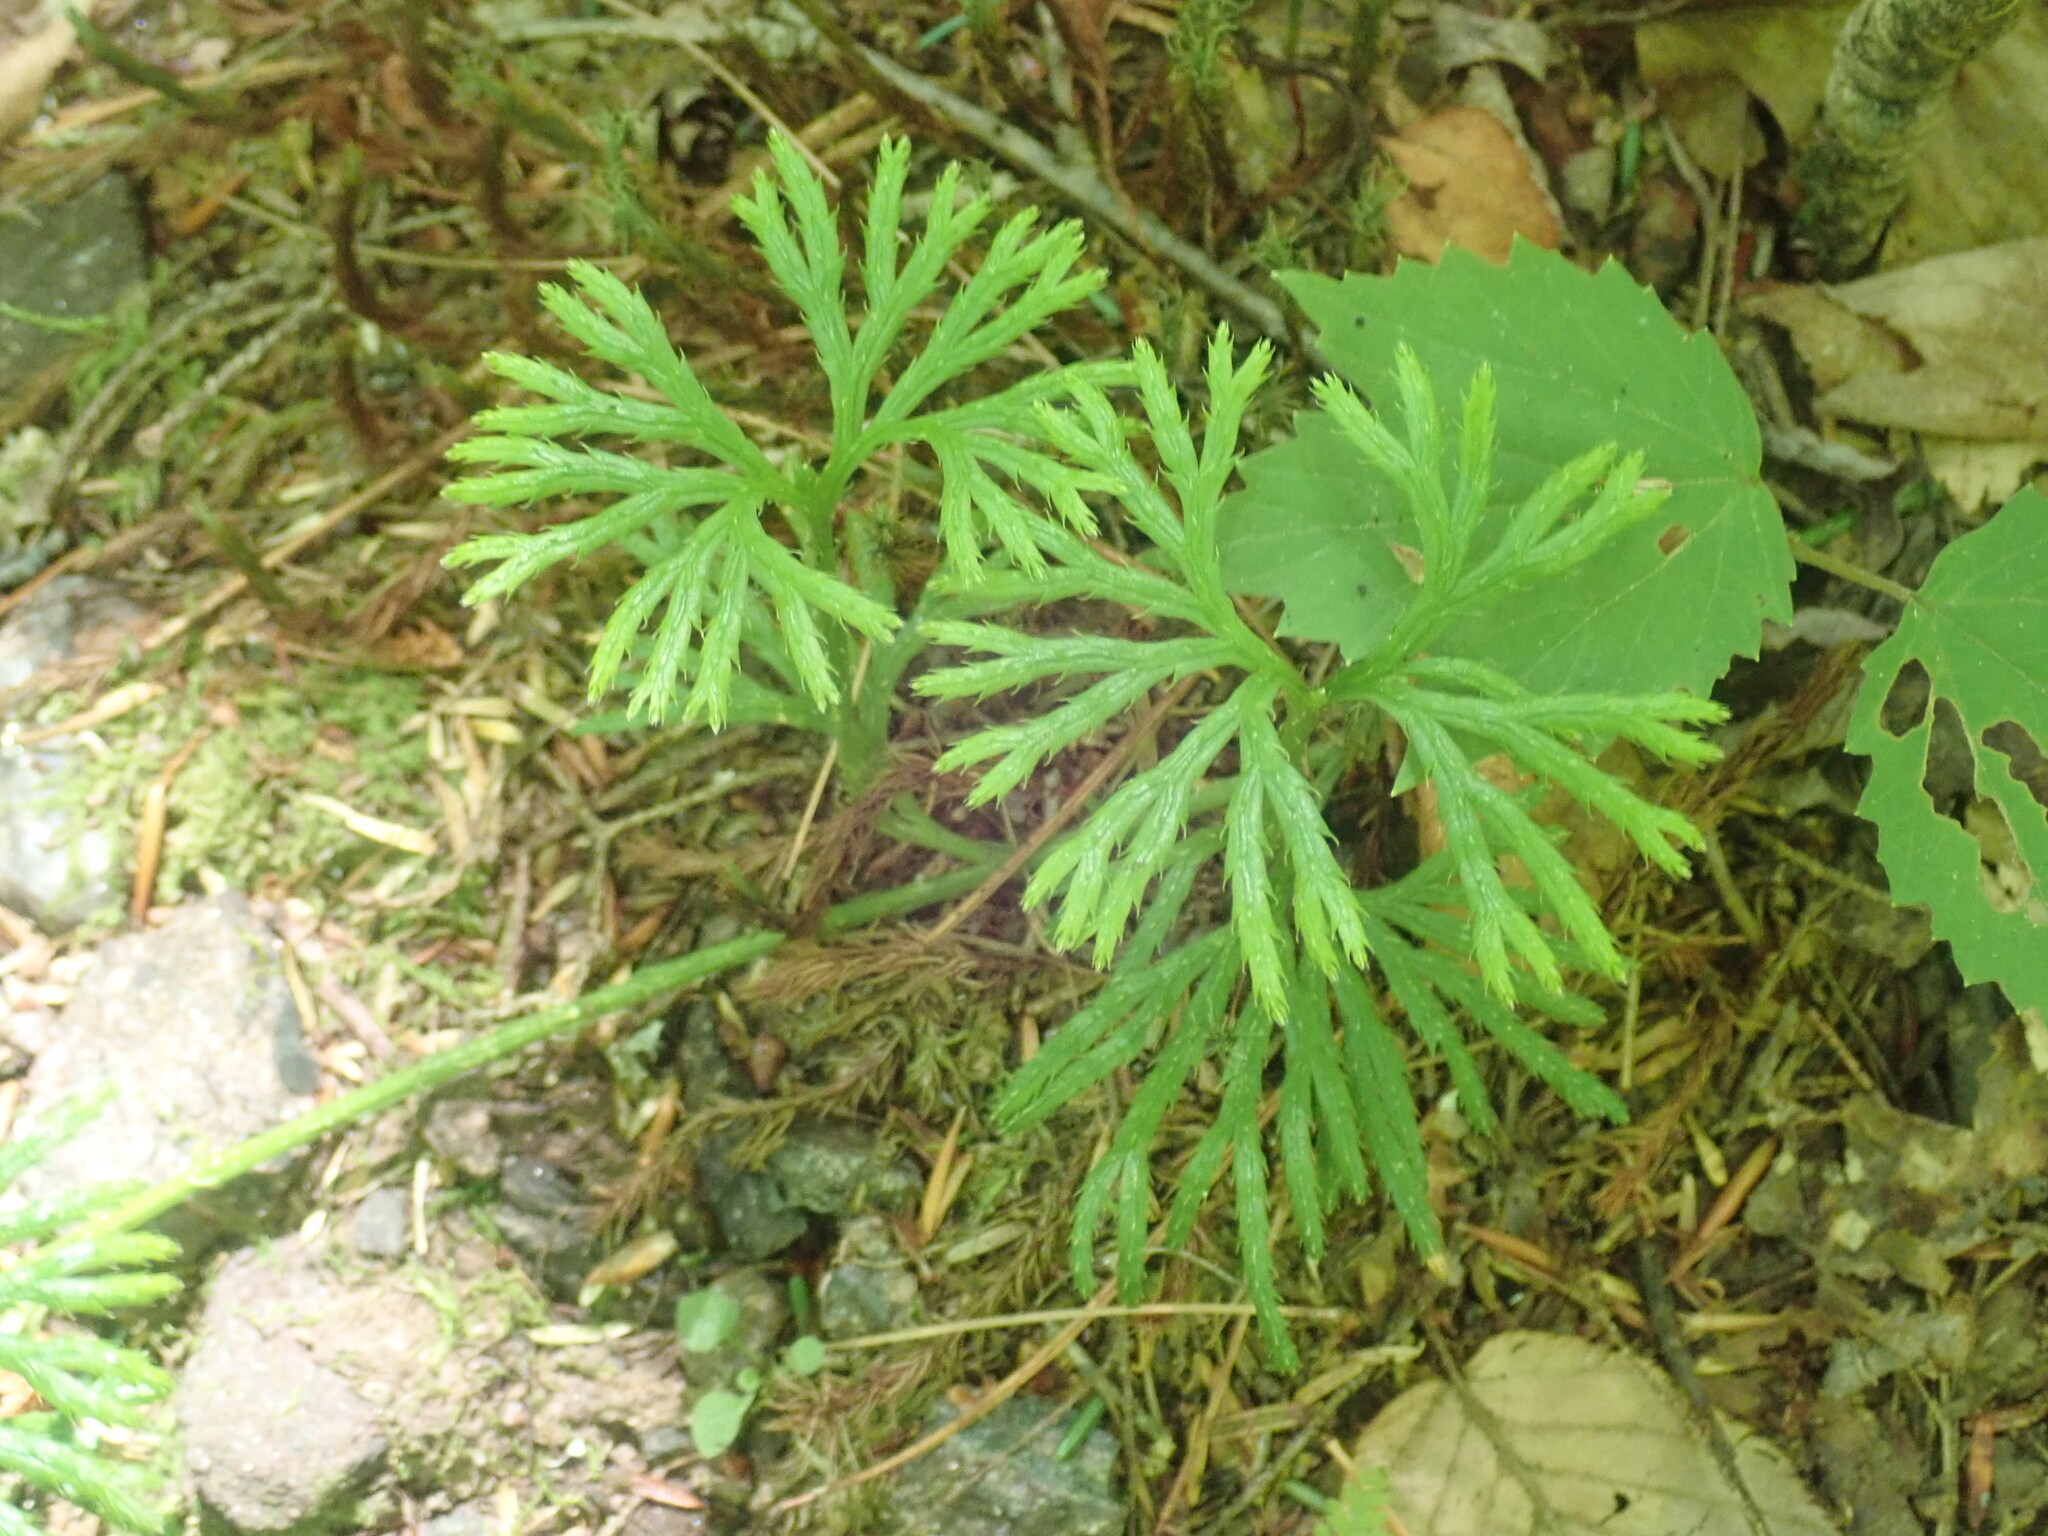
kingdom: Plantae
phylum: Tracheophyta
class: Lycopodiopsida
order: Lycopodiales
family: Lycopodiaceae
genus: Diphasiastrum
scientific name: Diphasiastrum digitatum
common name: Southern running-pine
